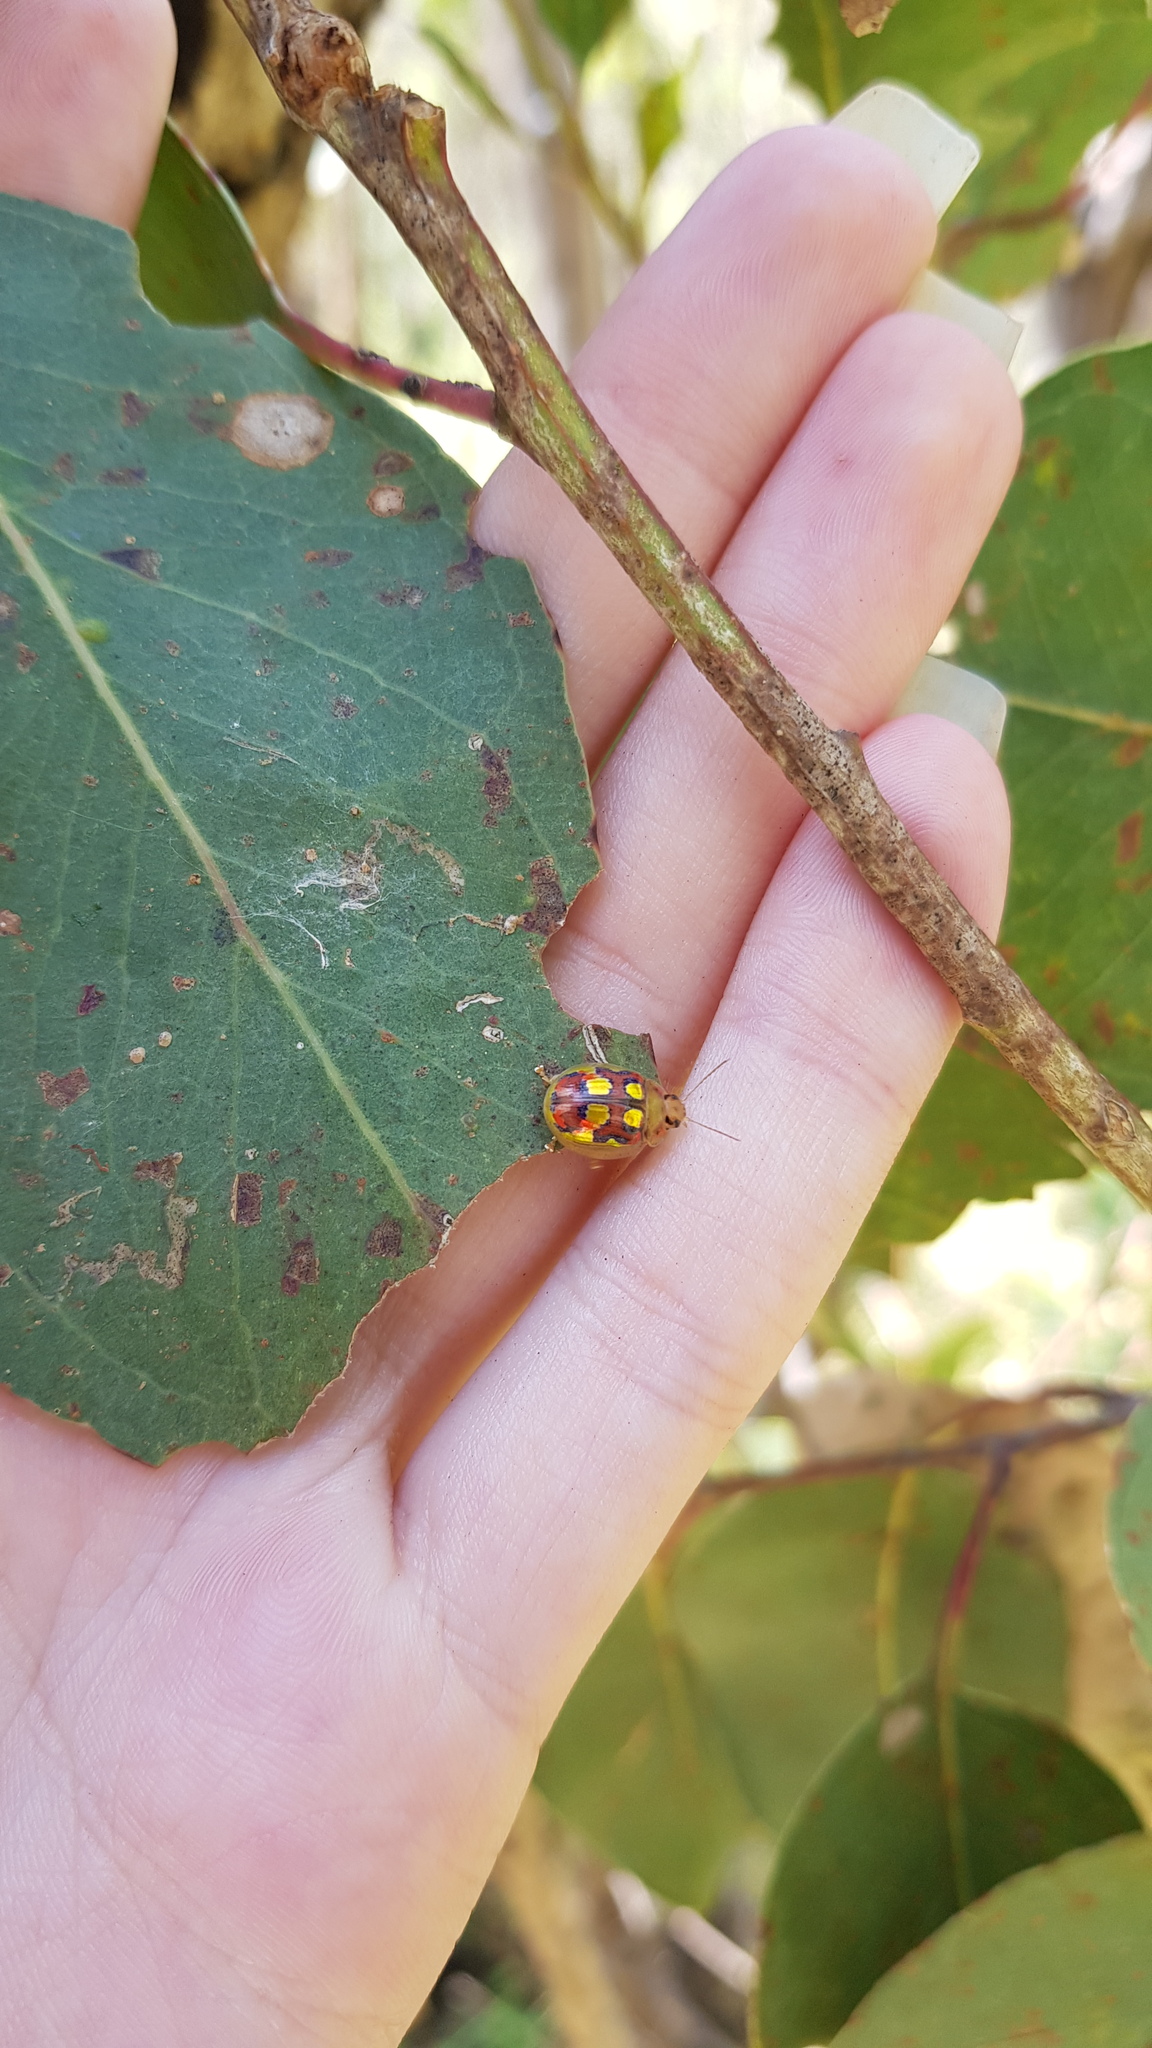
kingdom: Animalia
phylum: Arthropoda
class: Insecta
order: Coleoptera
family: Chrysomelidae
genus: Paropsisterna
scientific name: Paropsisterna
